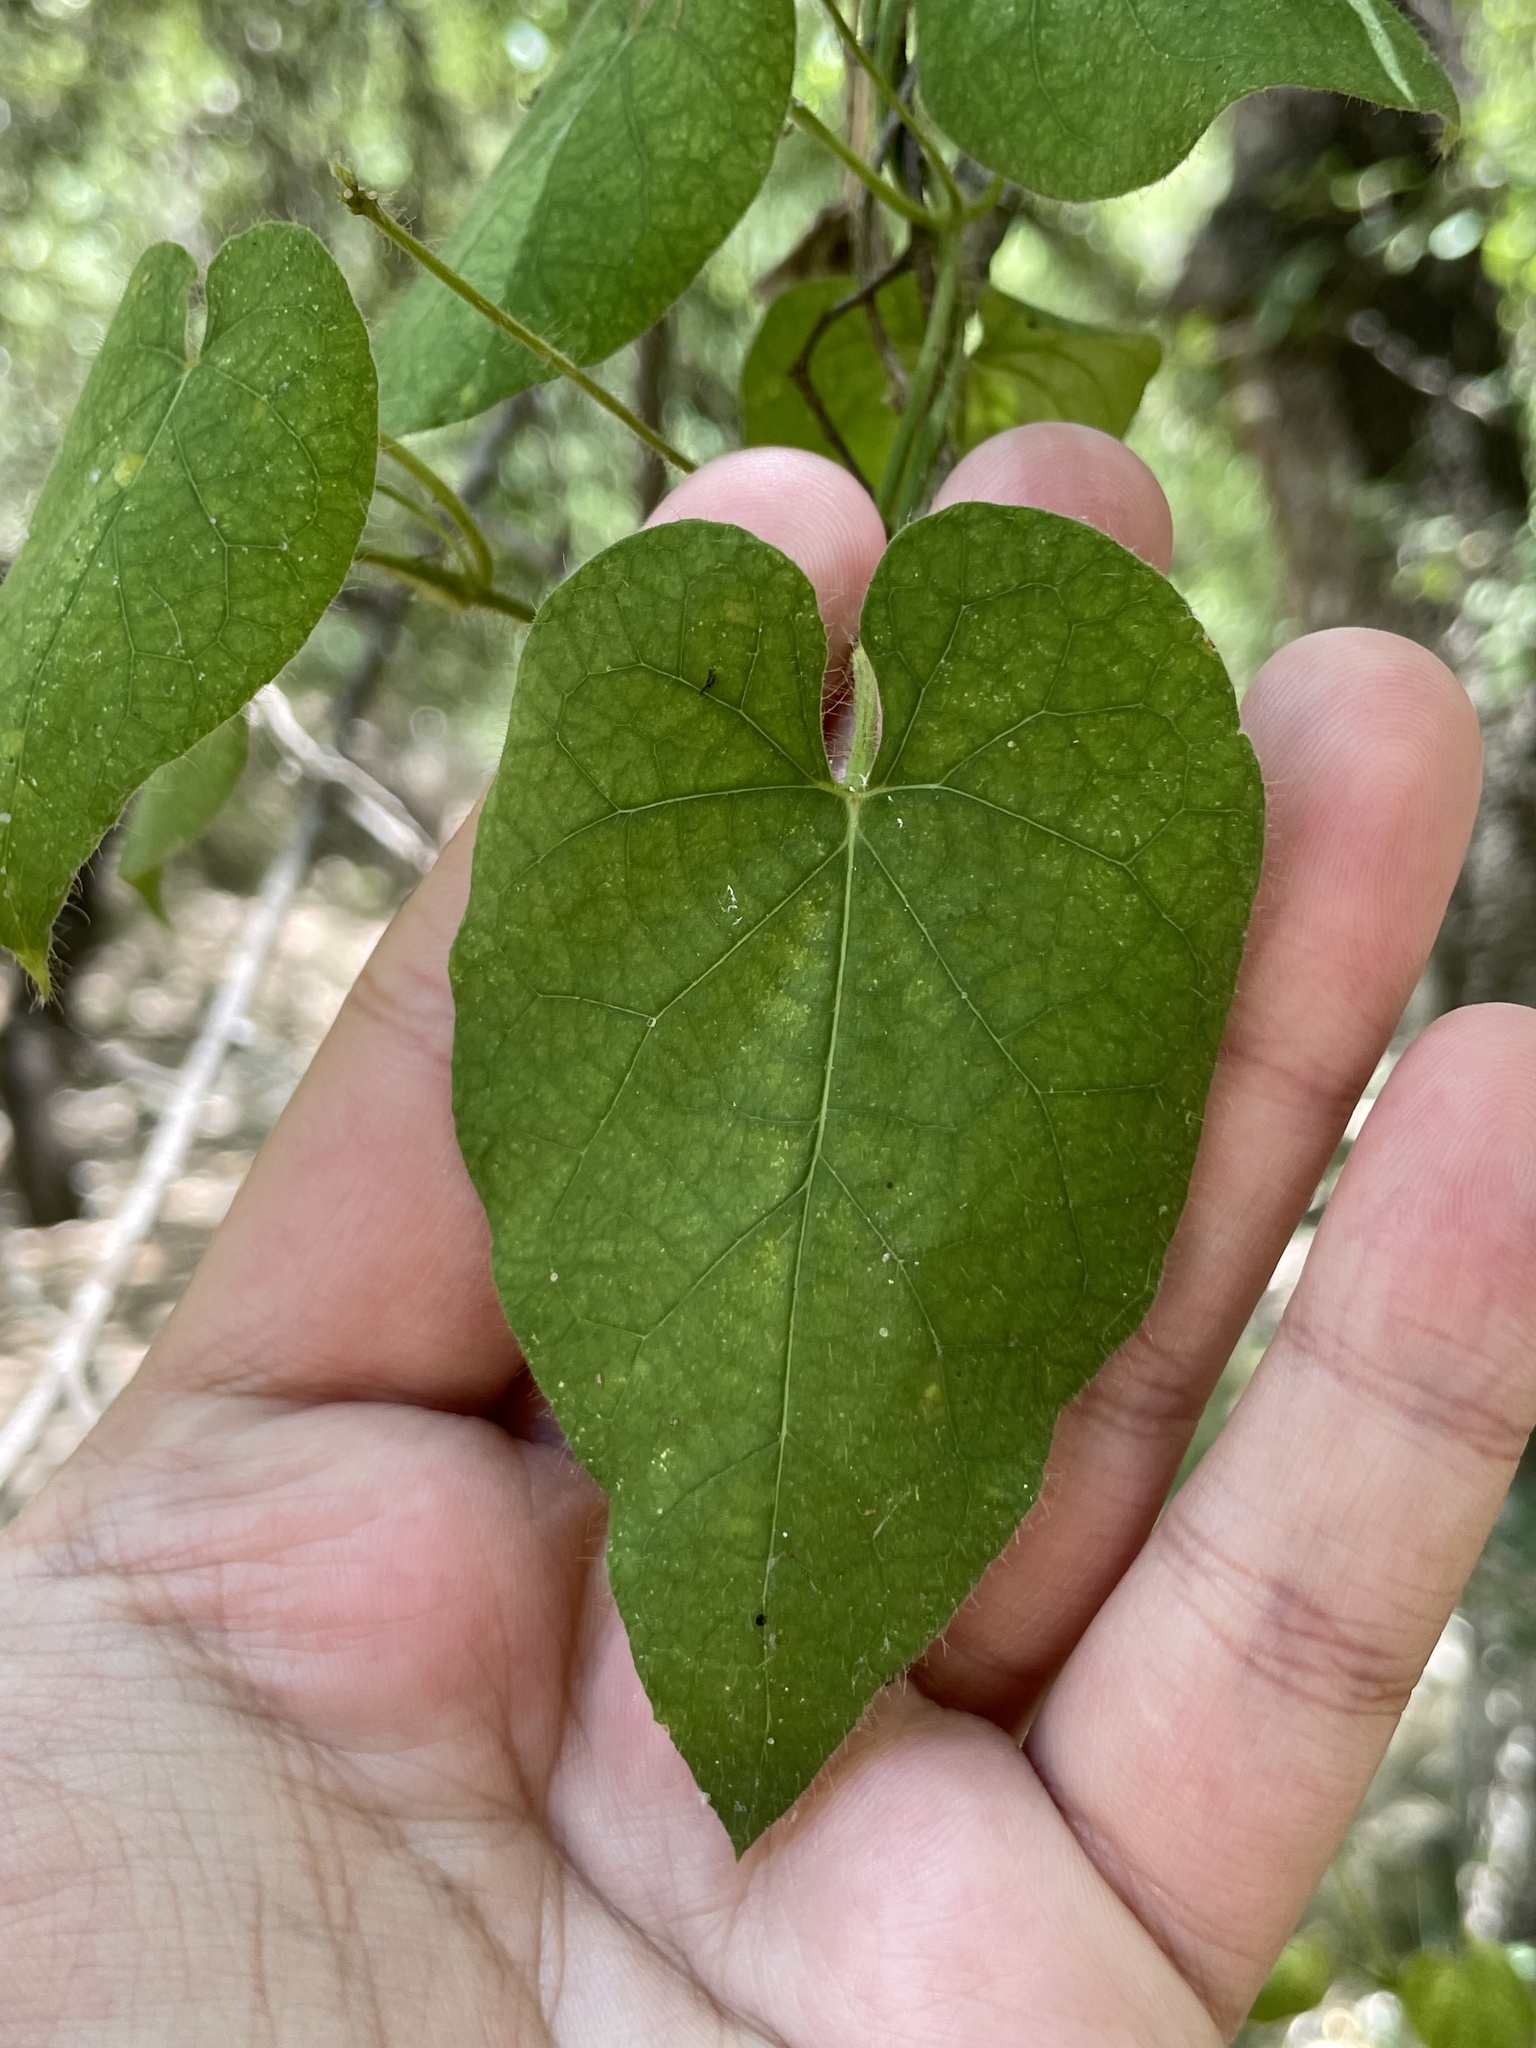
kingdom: Plantae
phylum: Tracheophyta
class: Magnoliopsida
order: Gentianales
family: Apocynaceae
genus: Dictyanthus
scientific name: Dictyanthus reticulatus
